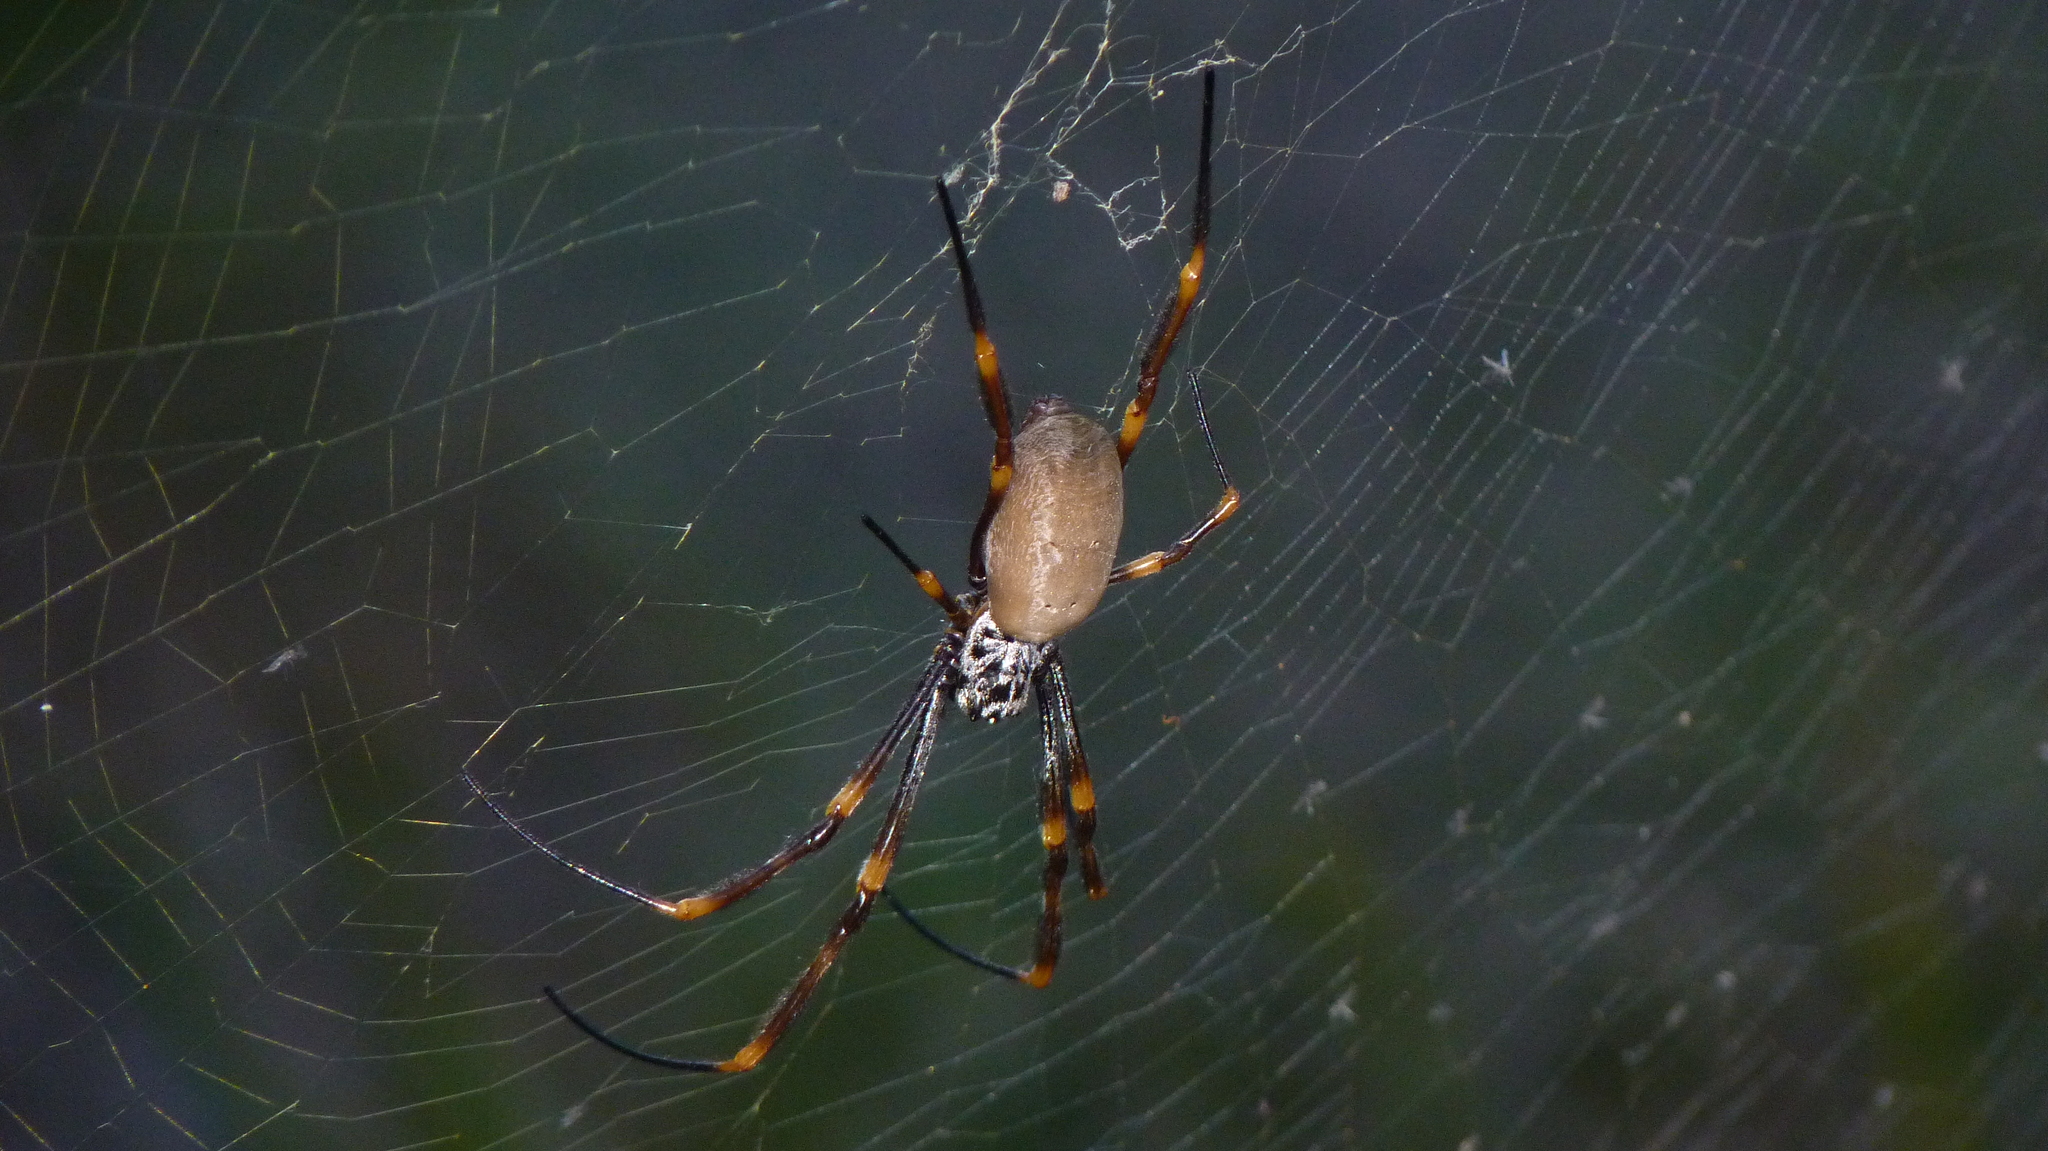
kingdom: Animalia
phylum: Arthropoda
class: Arachnida
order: Araneae
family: Araneidae
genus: Trichonephila
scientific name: Trichonephila plumipes
